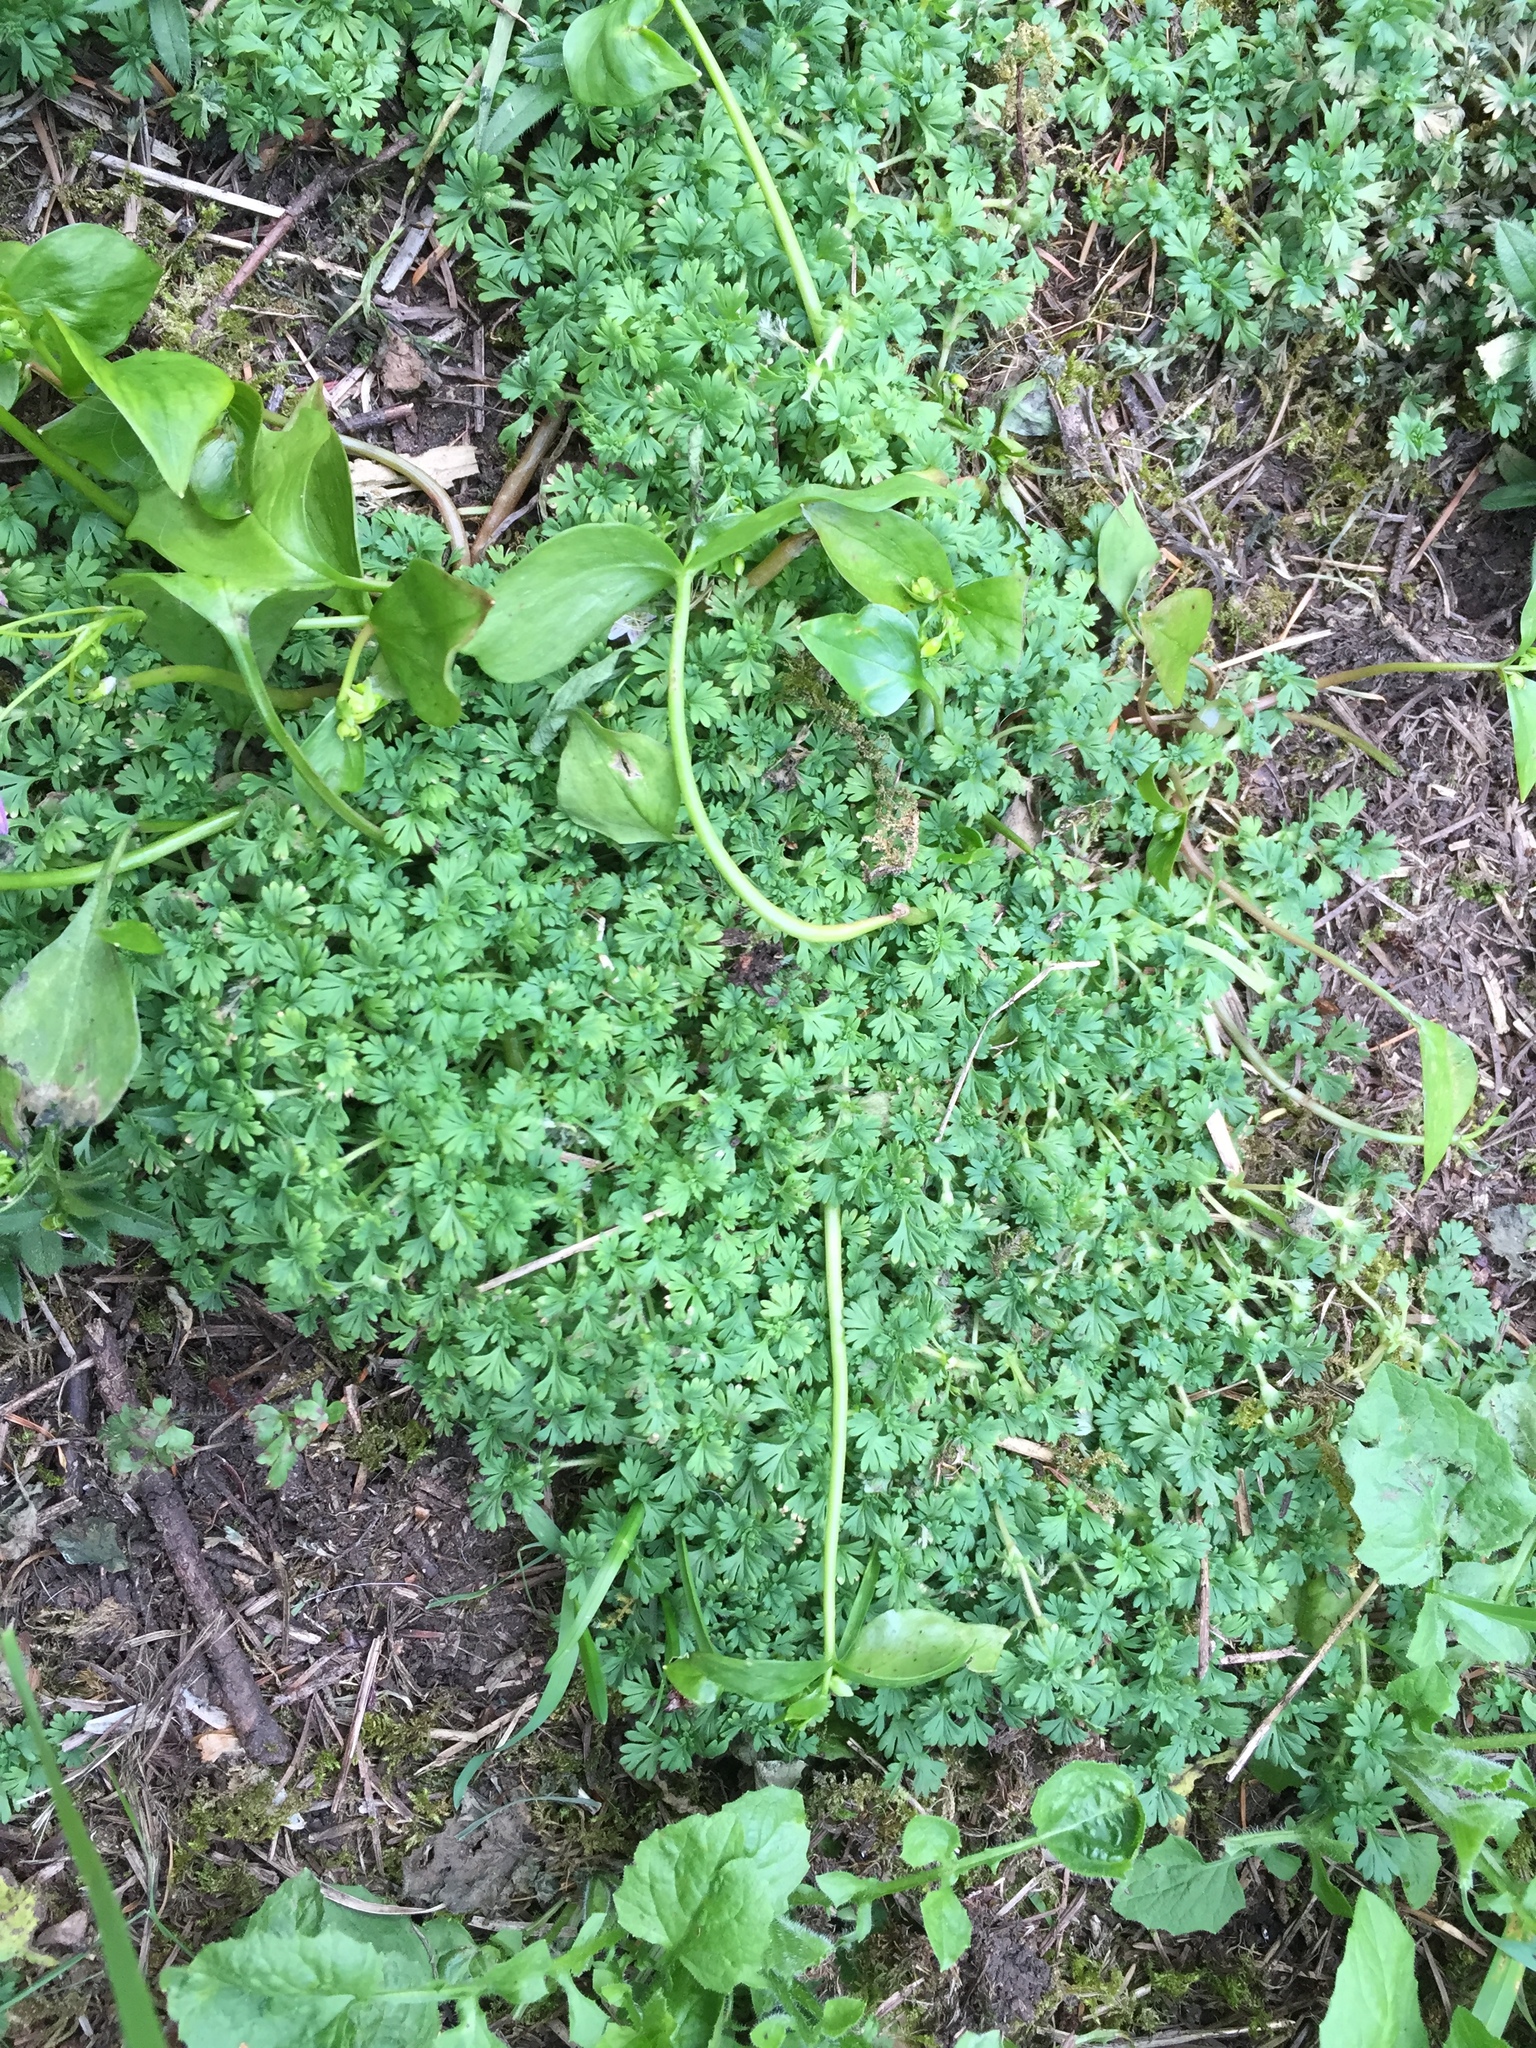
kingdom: Plantae
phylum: Tracheophyta
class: Magnoliopsida
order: Rosales
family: Rosaceae
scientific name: Rosaceae
